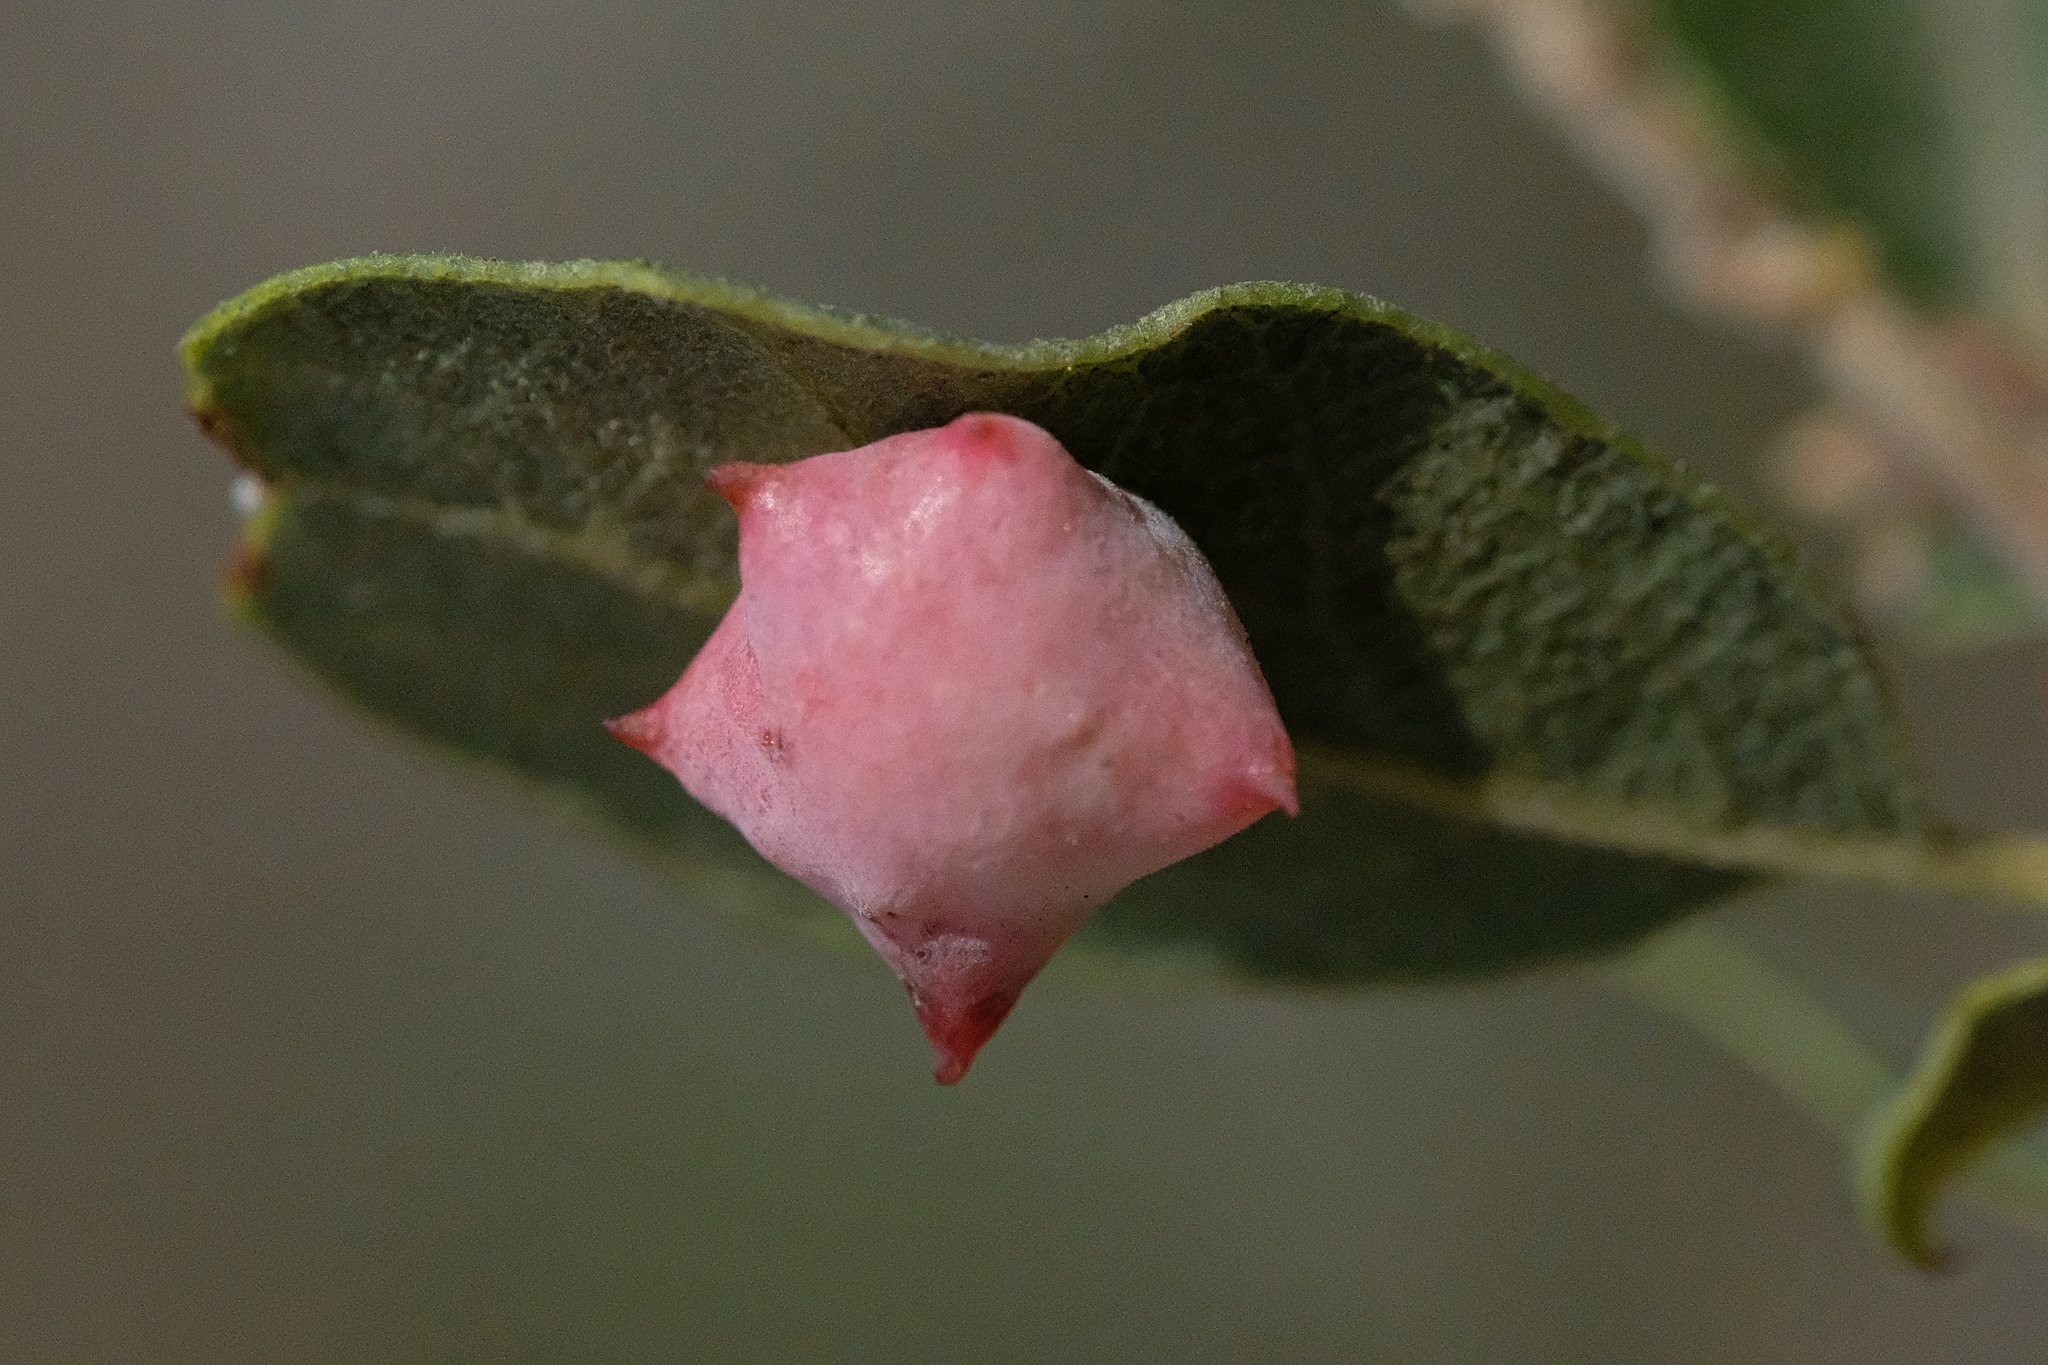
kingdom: Animalia
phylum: Arthropoda
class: Insecta
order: Hymenoptera
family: Cynipidae
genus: Cynips
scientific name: Cynips douglasi
